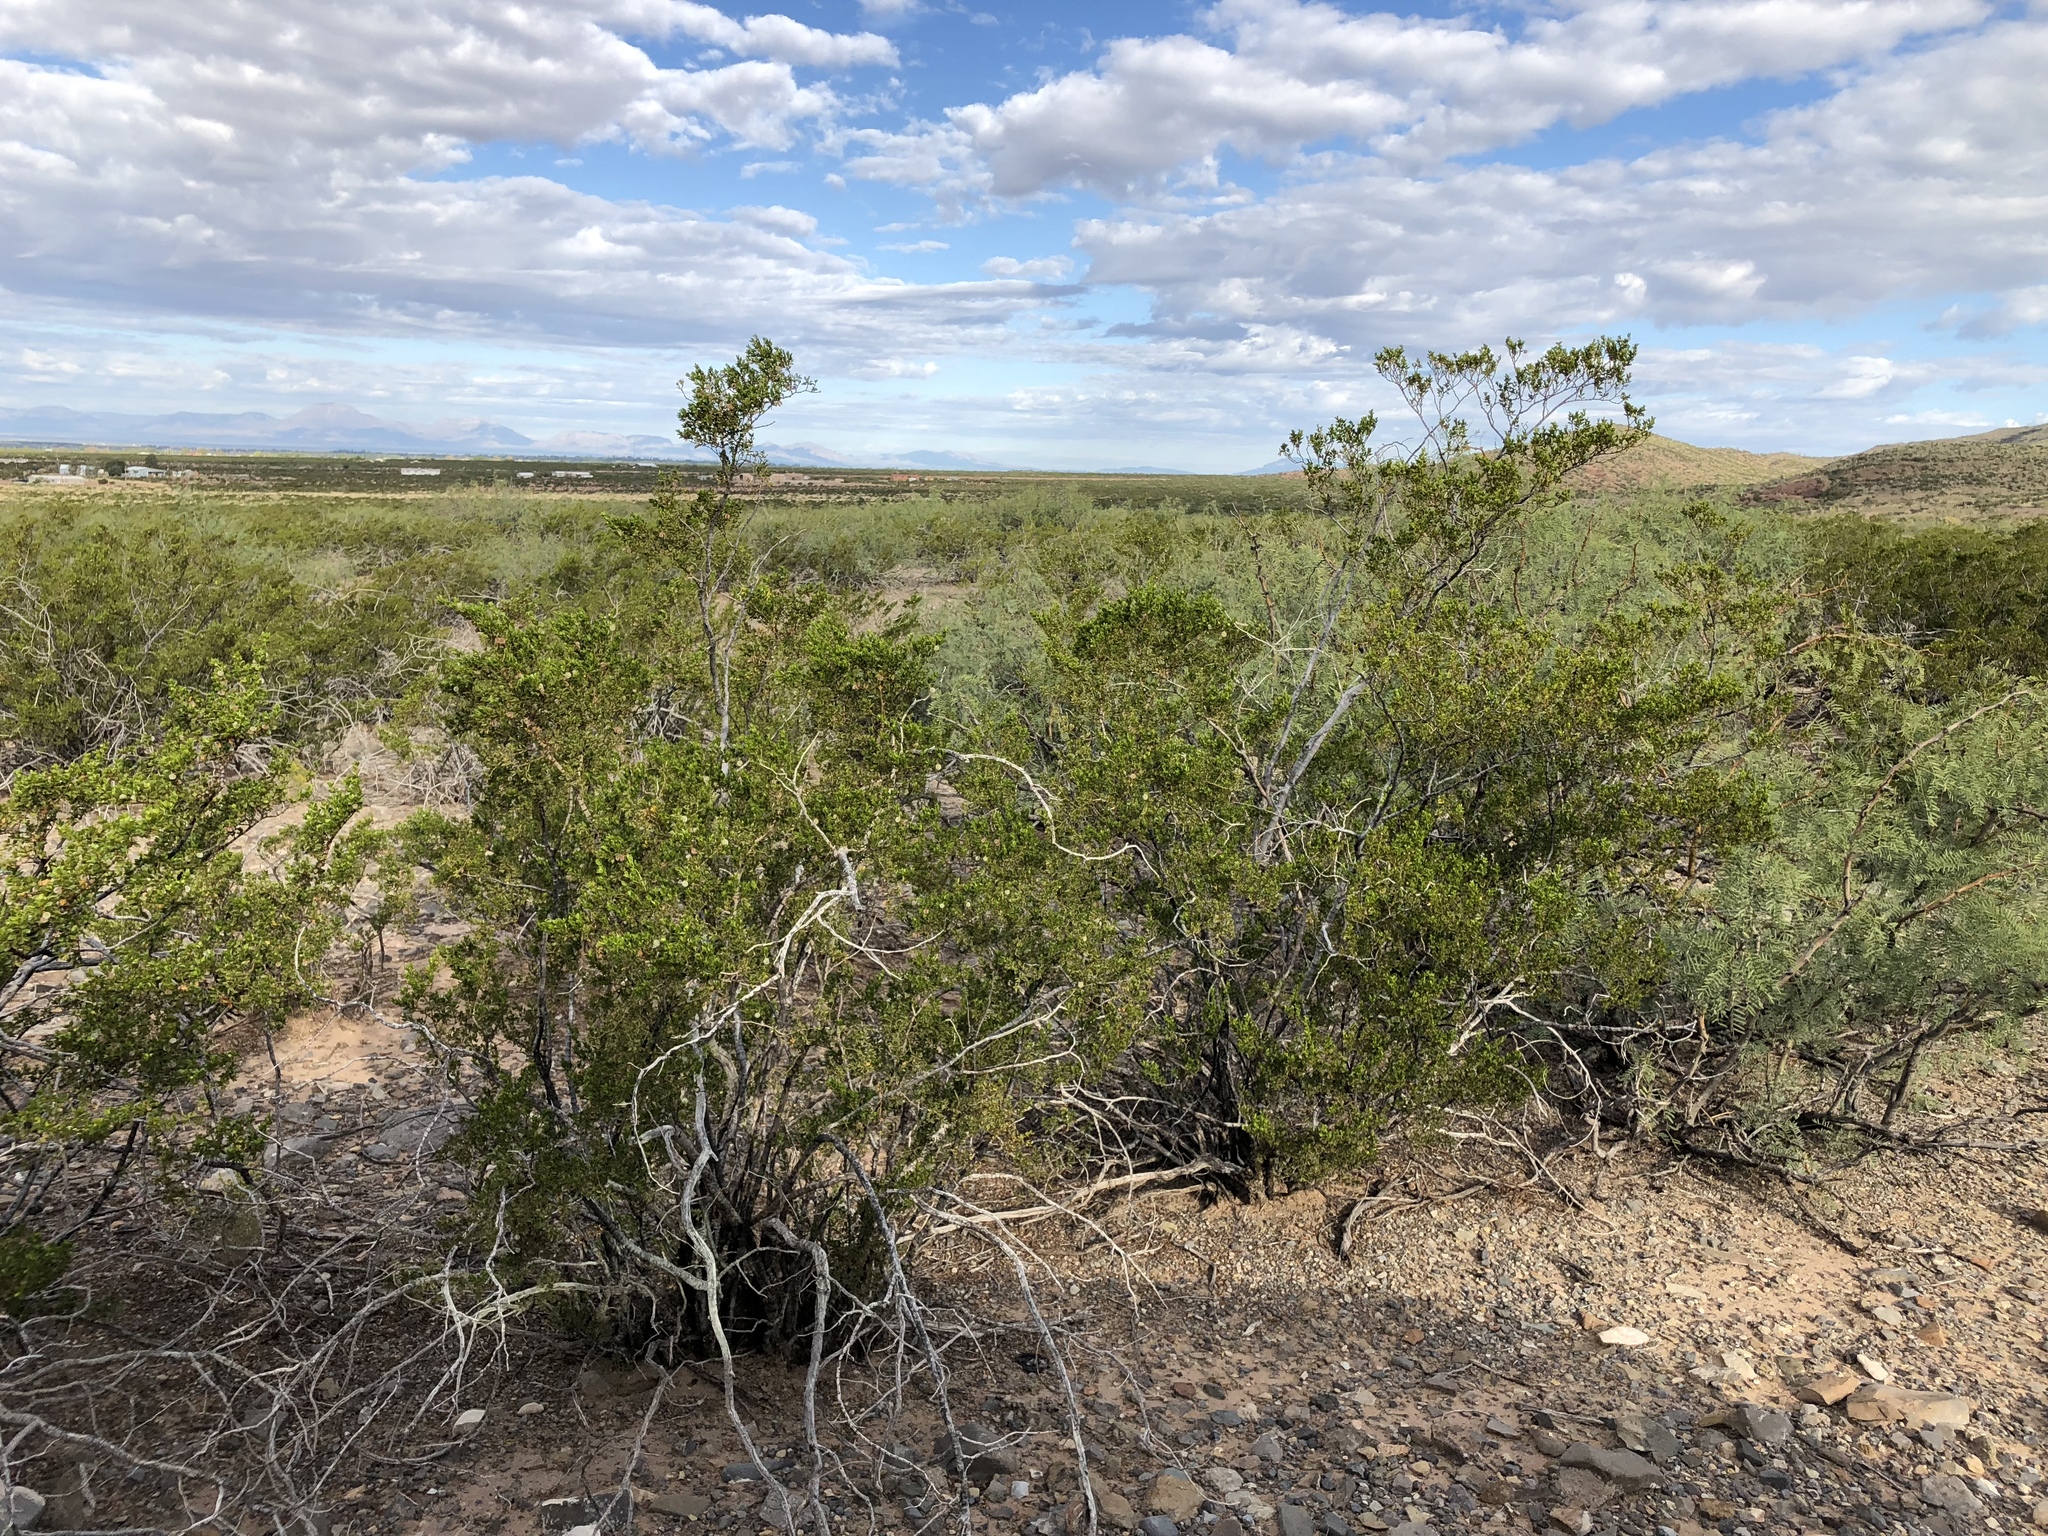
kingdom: Plantae
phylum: Tracheophyta
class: Magnoliopsida
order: Zygophyllales
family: Zygophyllaceae
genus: Larrea
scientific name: Larrea tridentata
